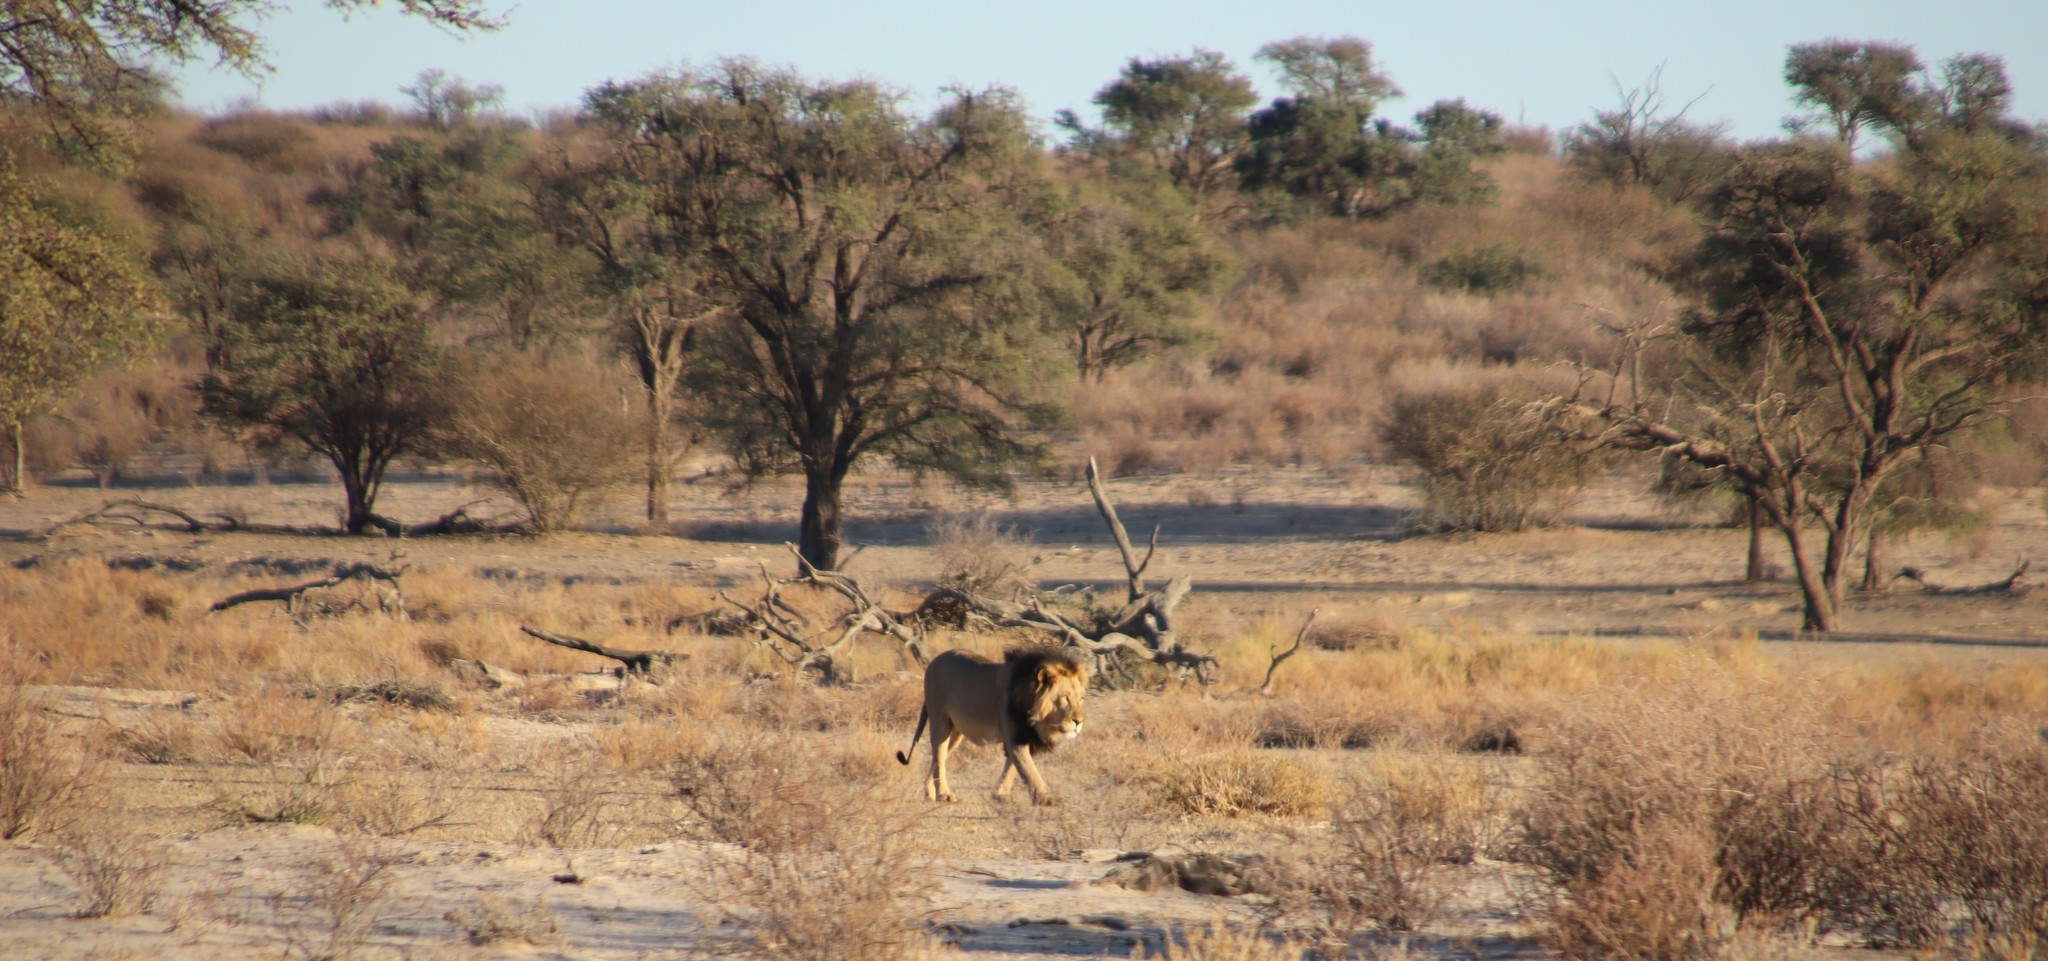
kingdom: Animalia
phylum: Chordata
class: Mammalia
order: Carnivora
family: Felidae
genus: Panthera
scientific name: Panthera leo
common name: Lion
